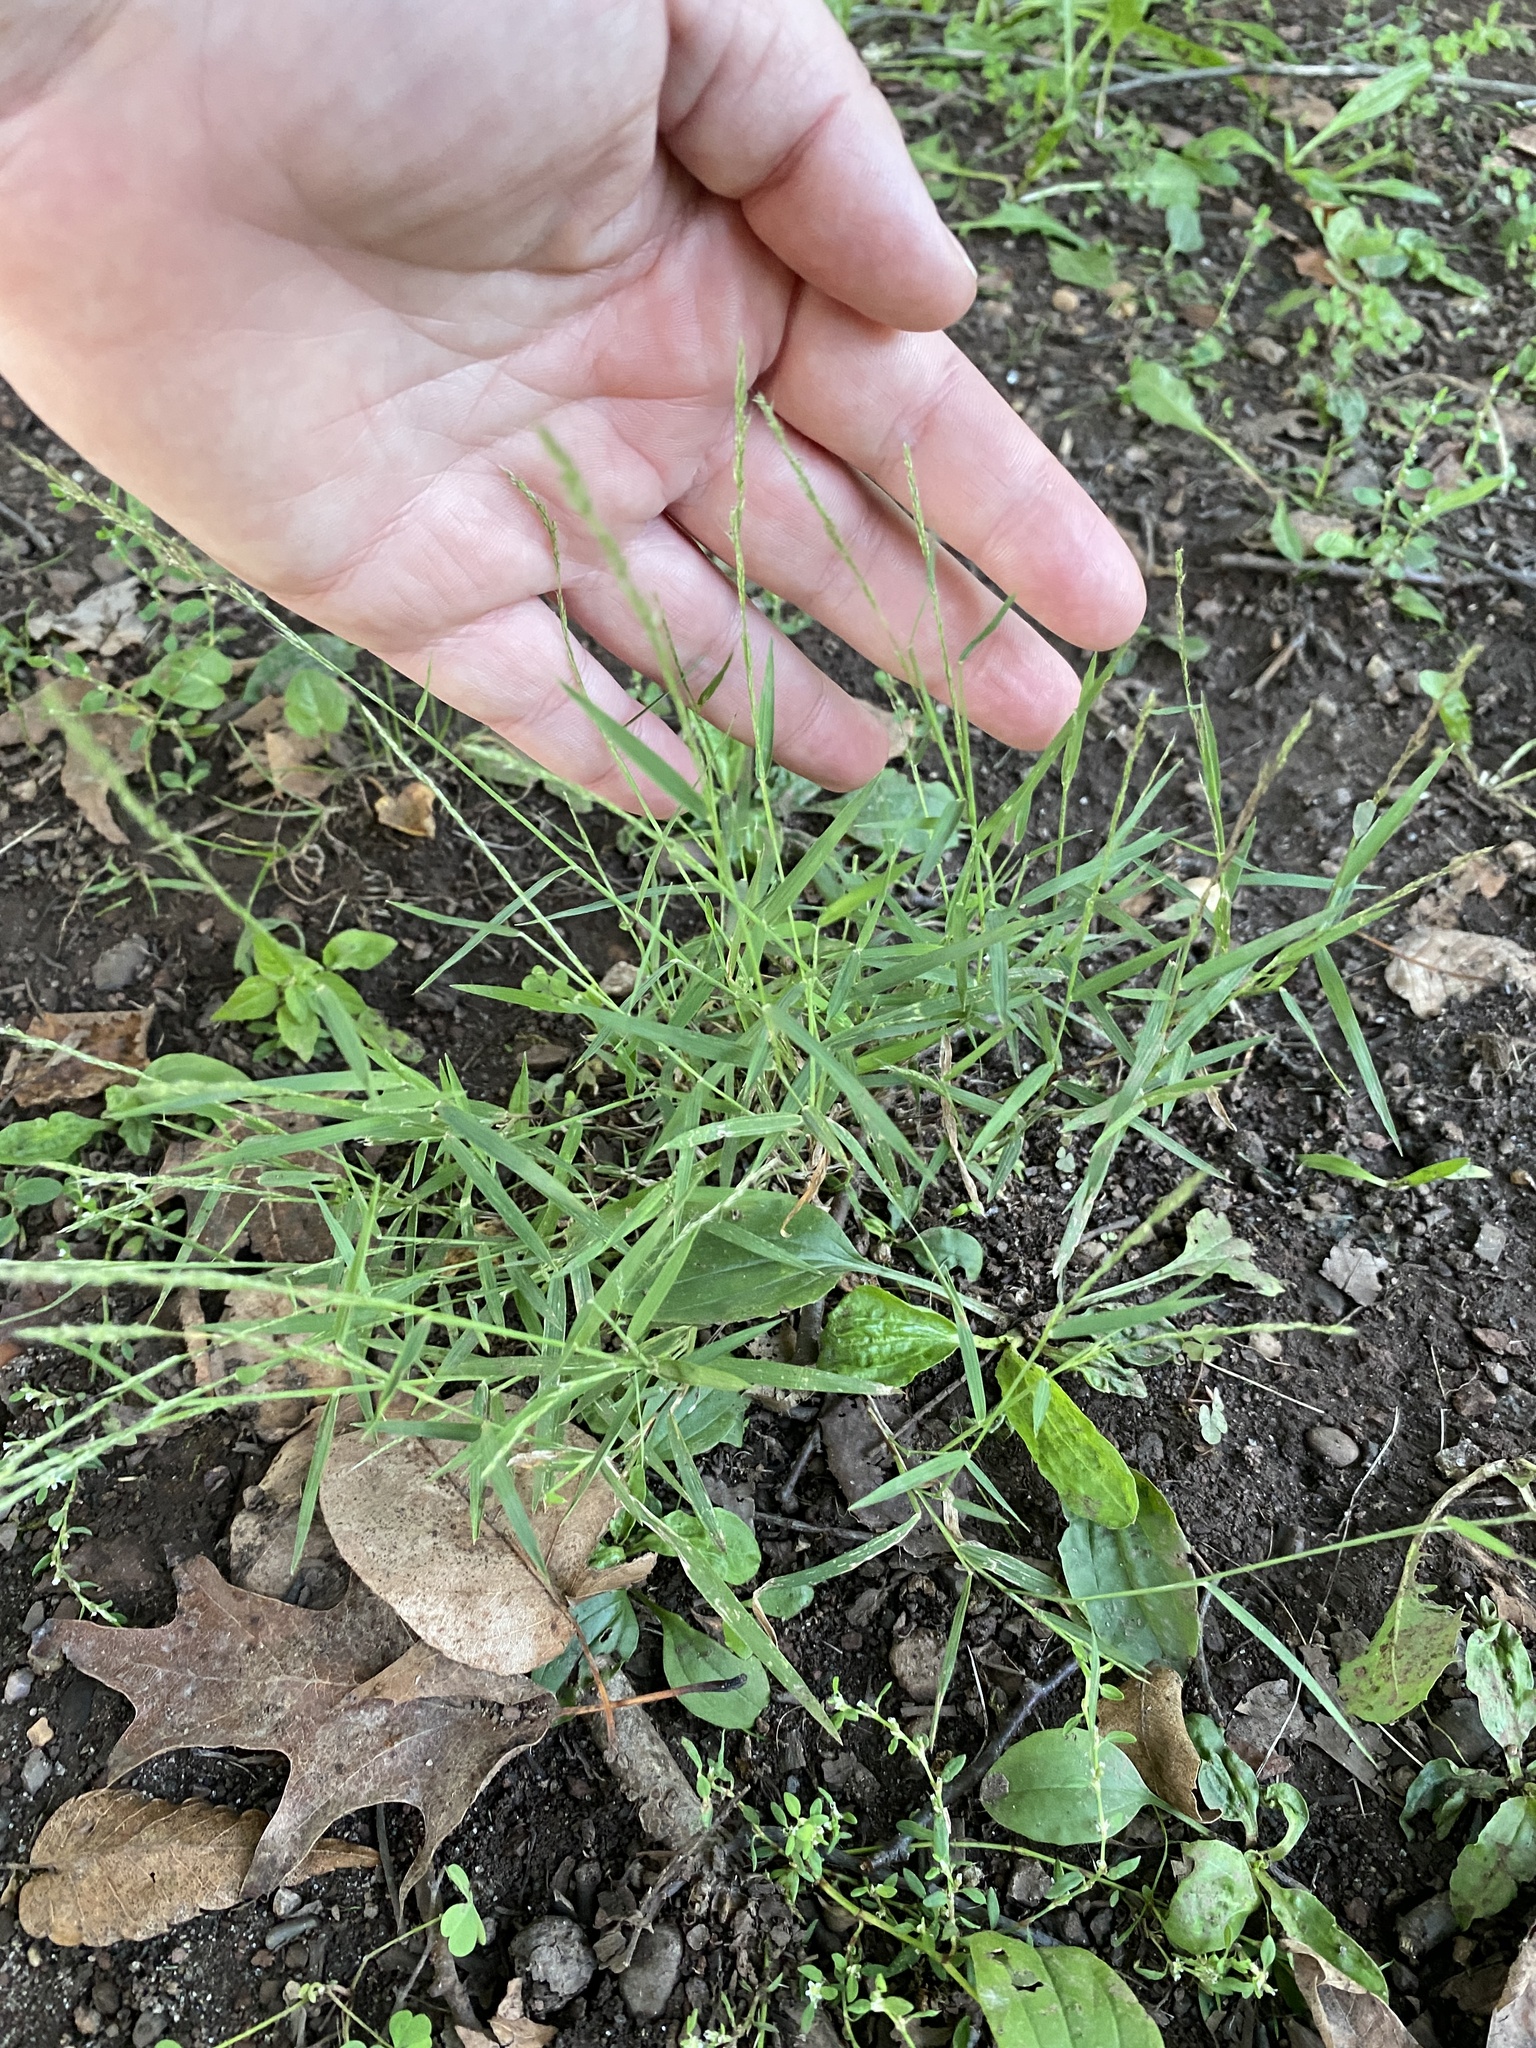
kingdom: Plantae
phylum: Tracheophyta
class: Liliopsida
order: Poales
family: Poaceae
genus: Muhlenbergia
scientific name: Muhlenbergia schreberi
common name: Nimblewill
